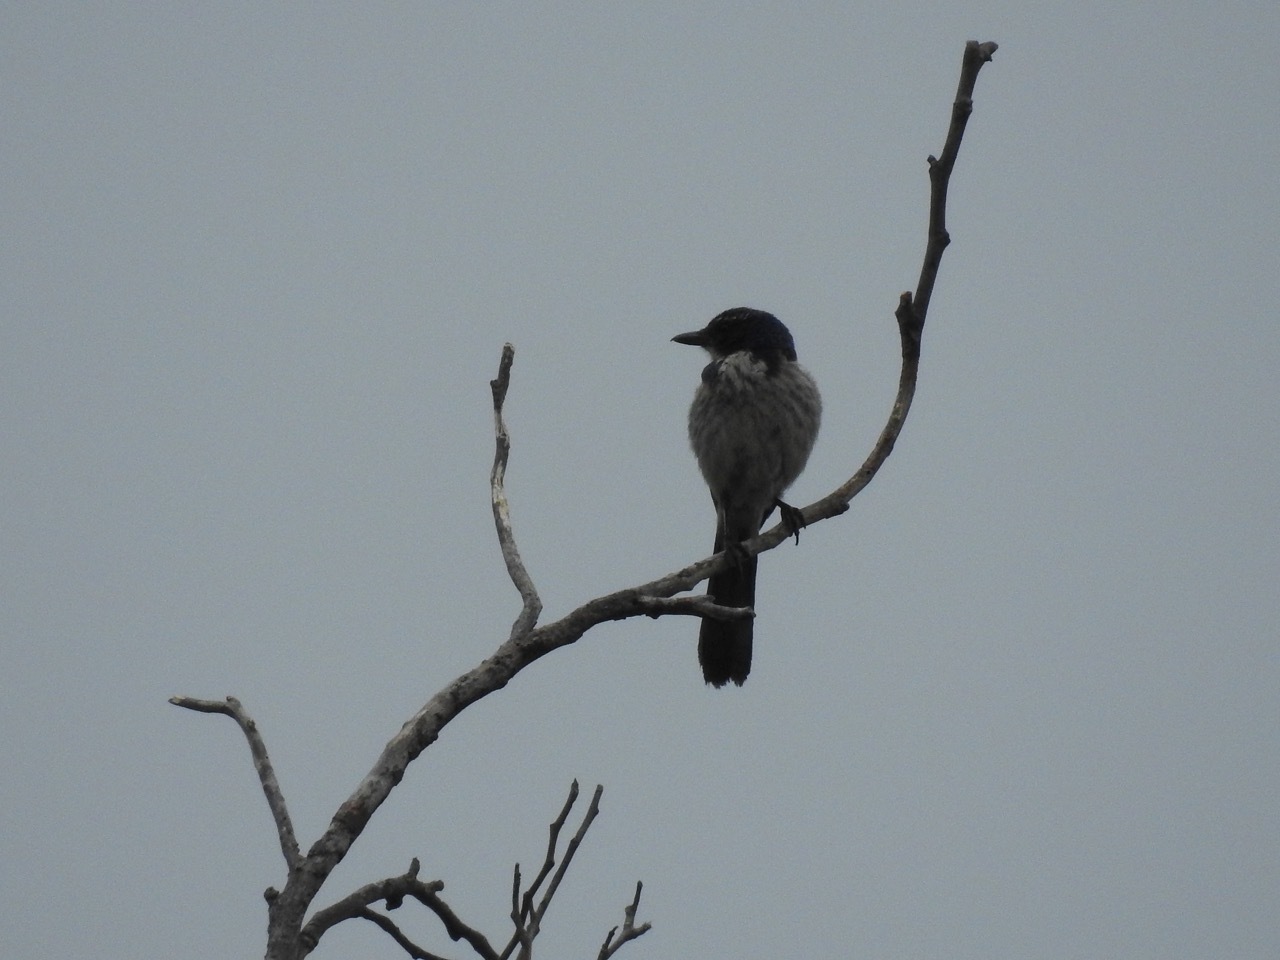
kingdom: Animalia
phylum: Chordata
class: Aves
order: Passeriformes
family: Corvidae
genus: Aphelocoma
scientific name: Aphelocoma californica
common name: California scrub-jay
